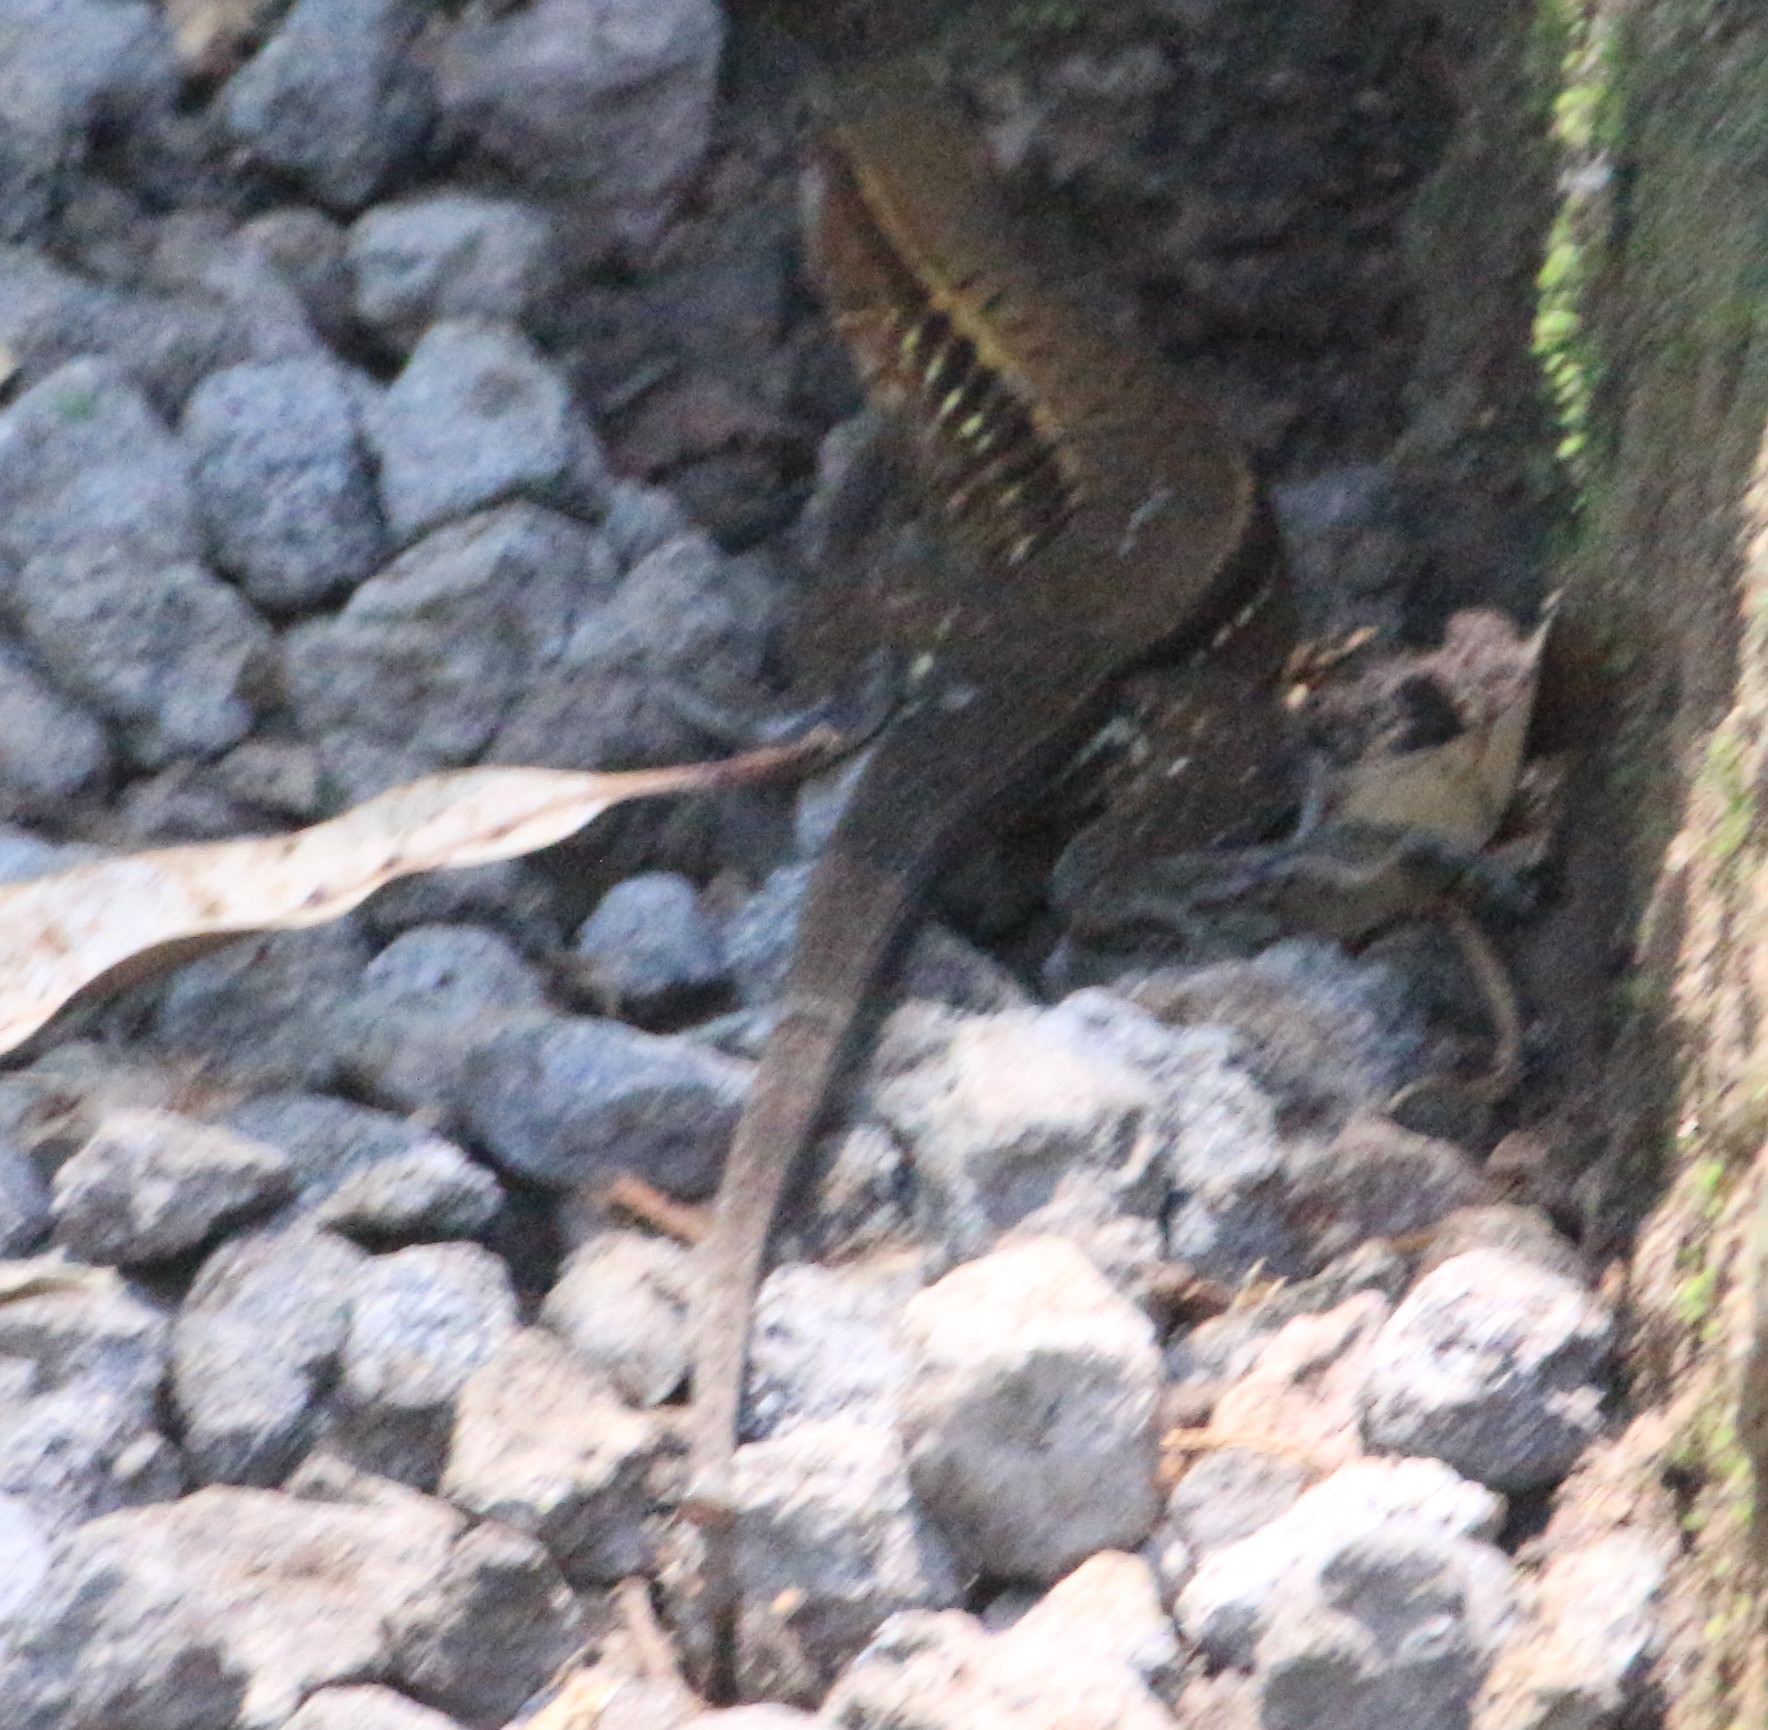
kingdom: Animalia
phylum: Chordata
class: Squamata
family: Teiidae
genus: Holcosus
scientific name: Holcosus undulatus
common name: Rainbow ameiva
